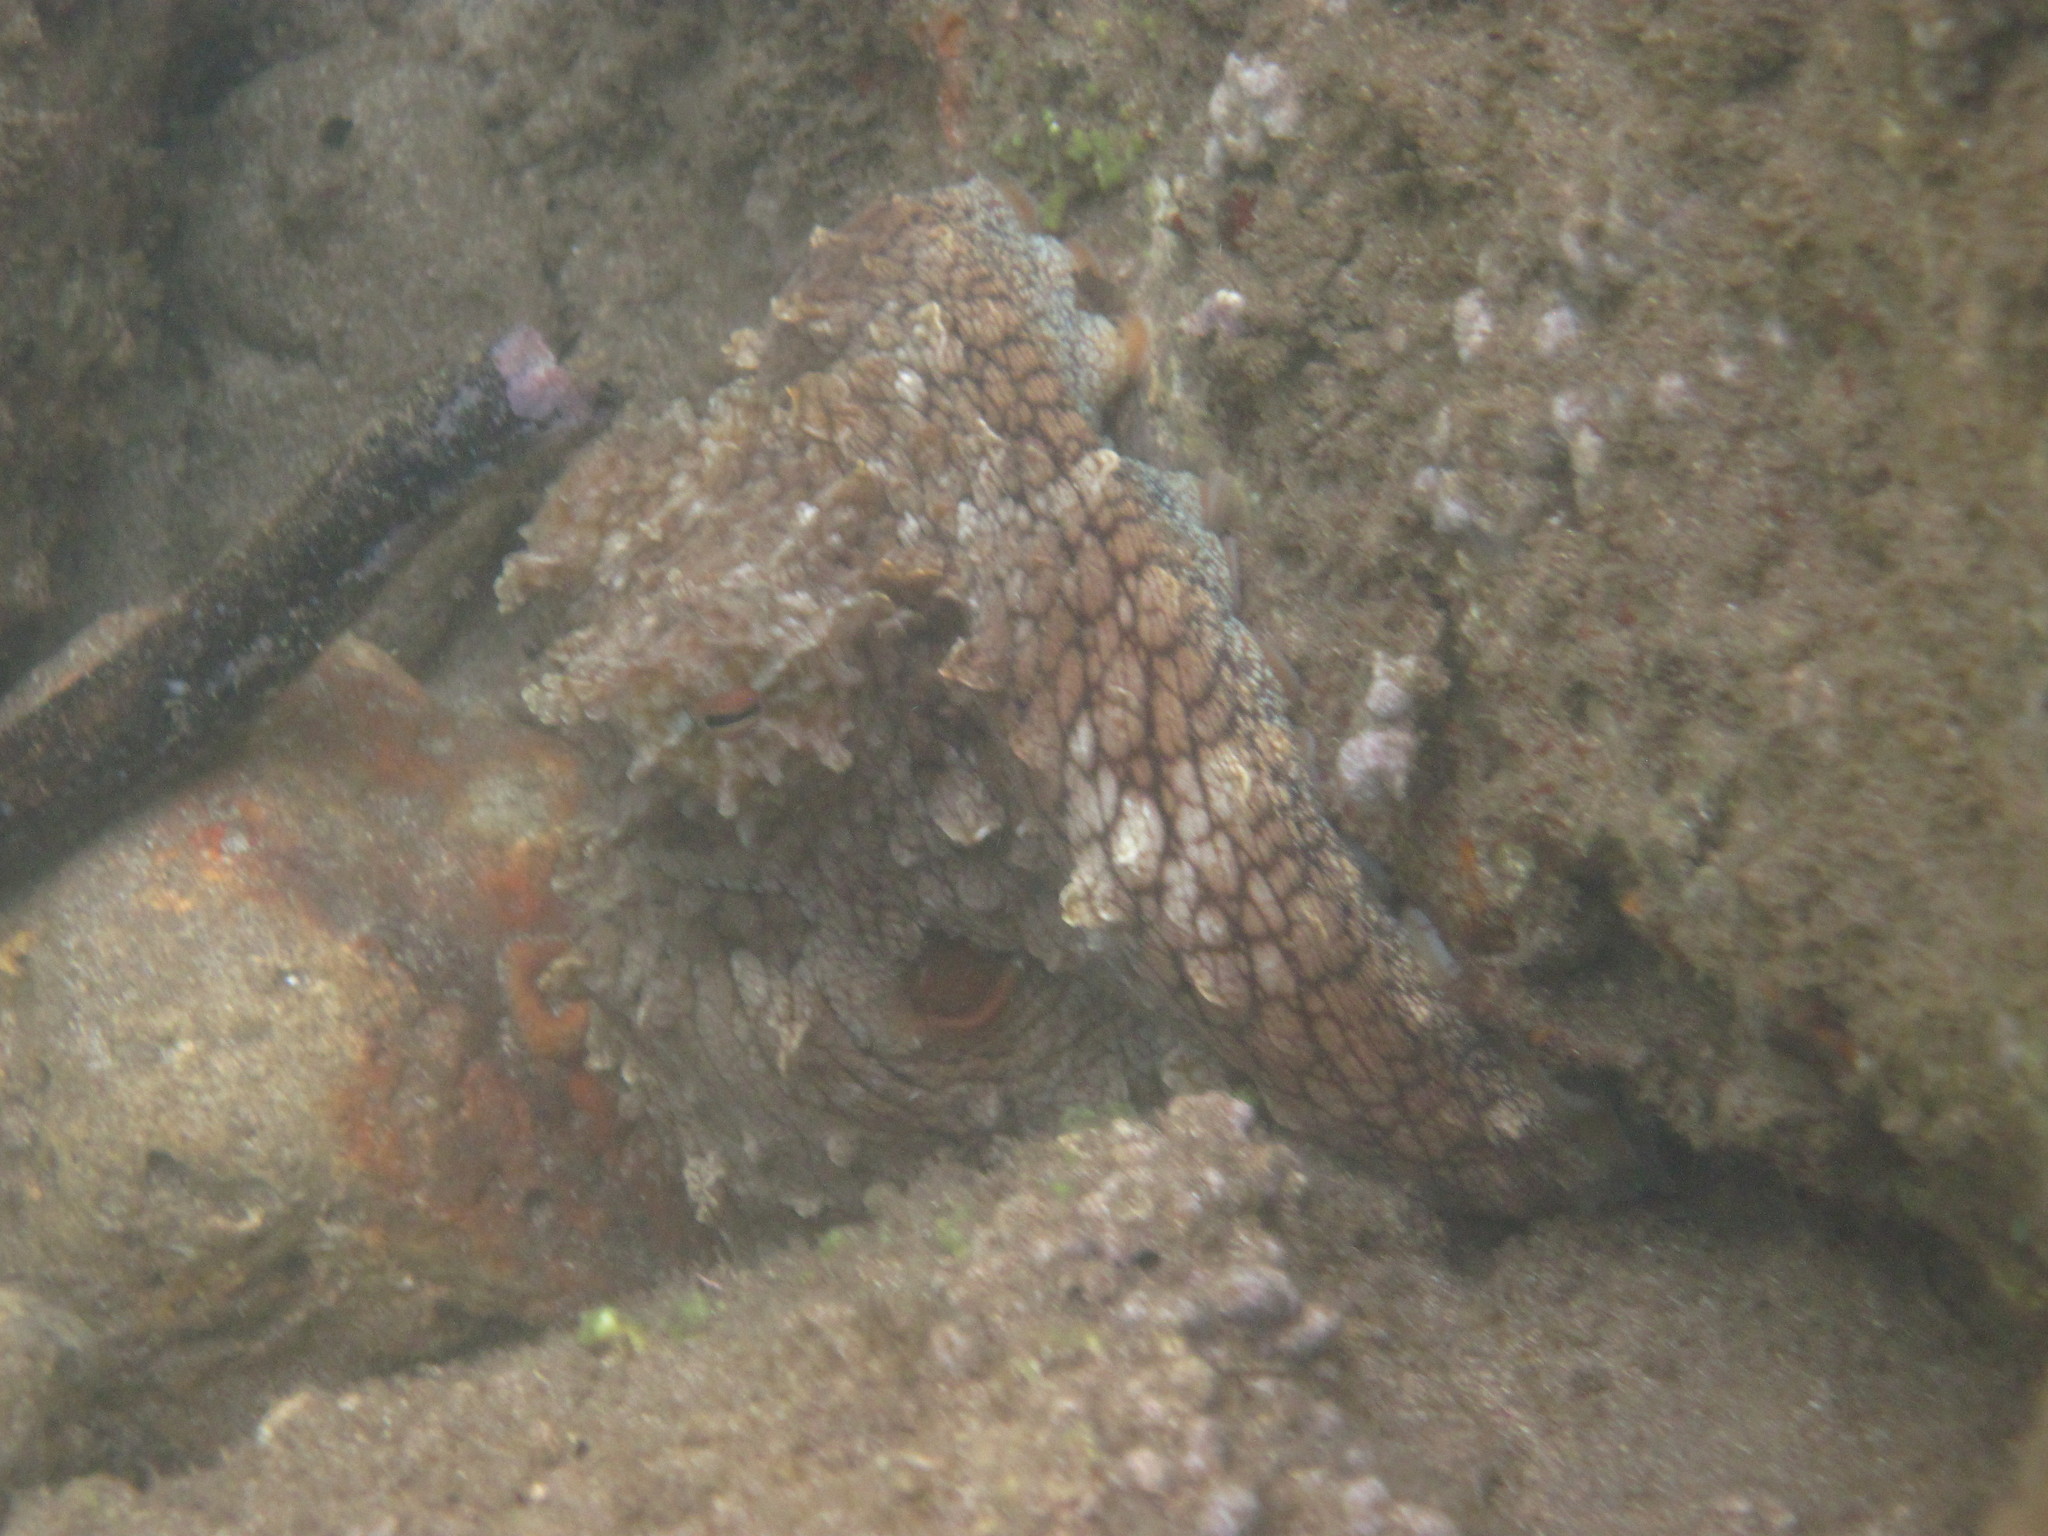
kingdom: Animalia
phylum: Mollusca
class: Cephalopoda
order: Octopoda
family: Octopodidae
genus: Octopus
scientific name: Octopus cyanea
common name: Cyane's octopus
